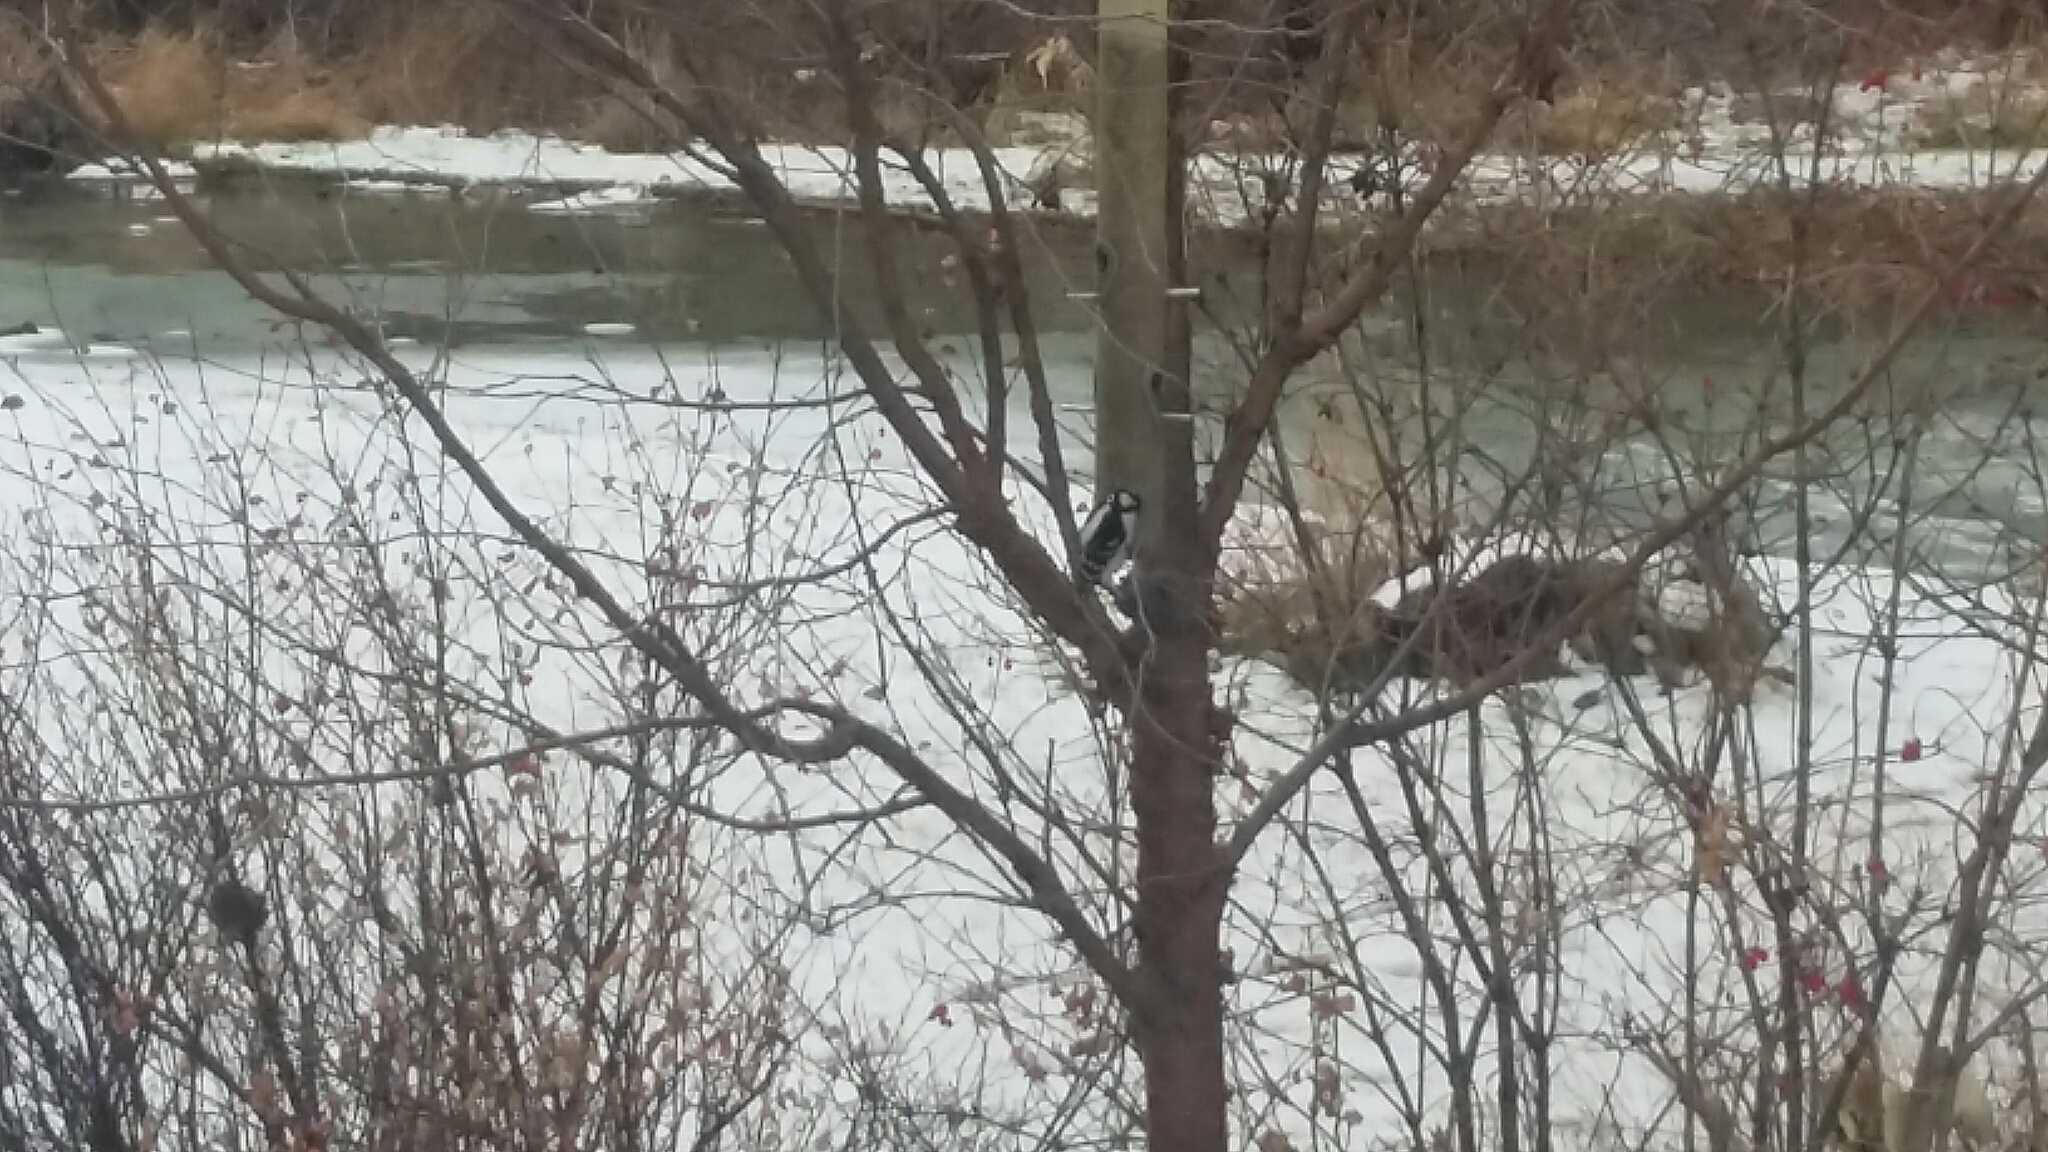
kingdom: Animalia
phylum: Chordata
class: Aves
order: Piciformes
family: Picidae
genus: Dryobates
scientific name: Dryobates pubescens
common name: Downy woodpecker
